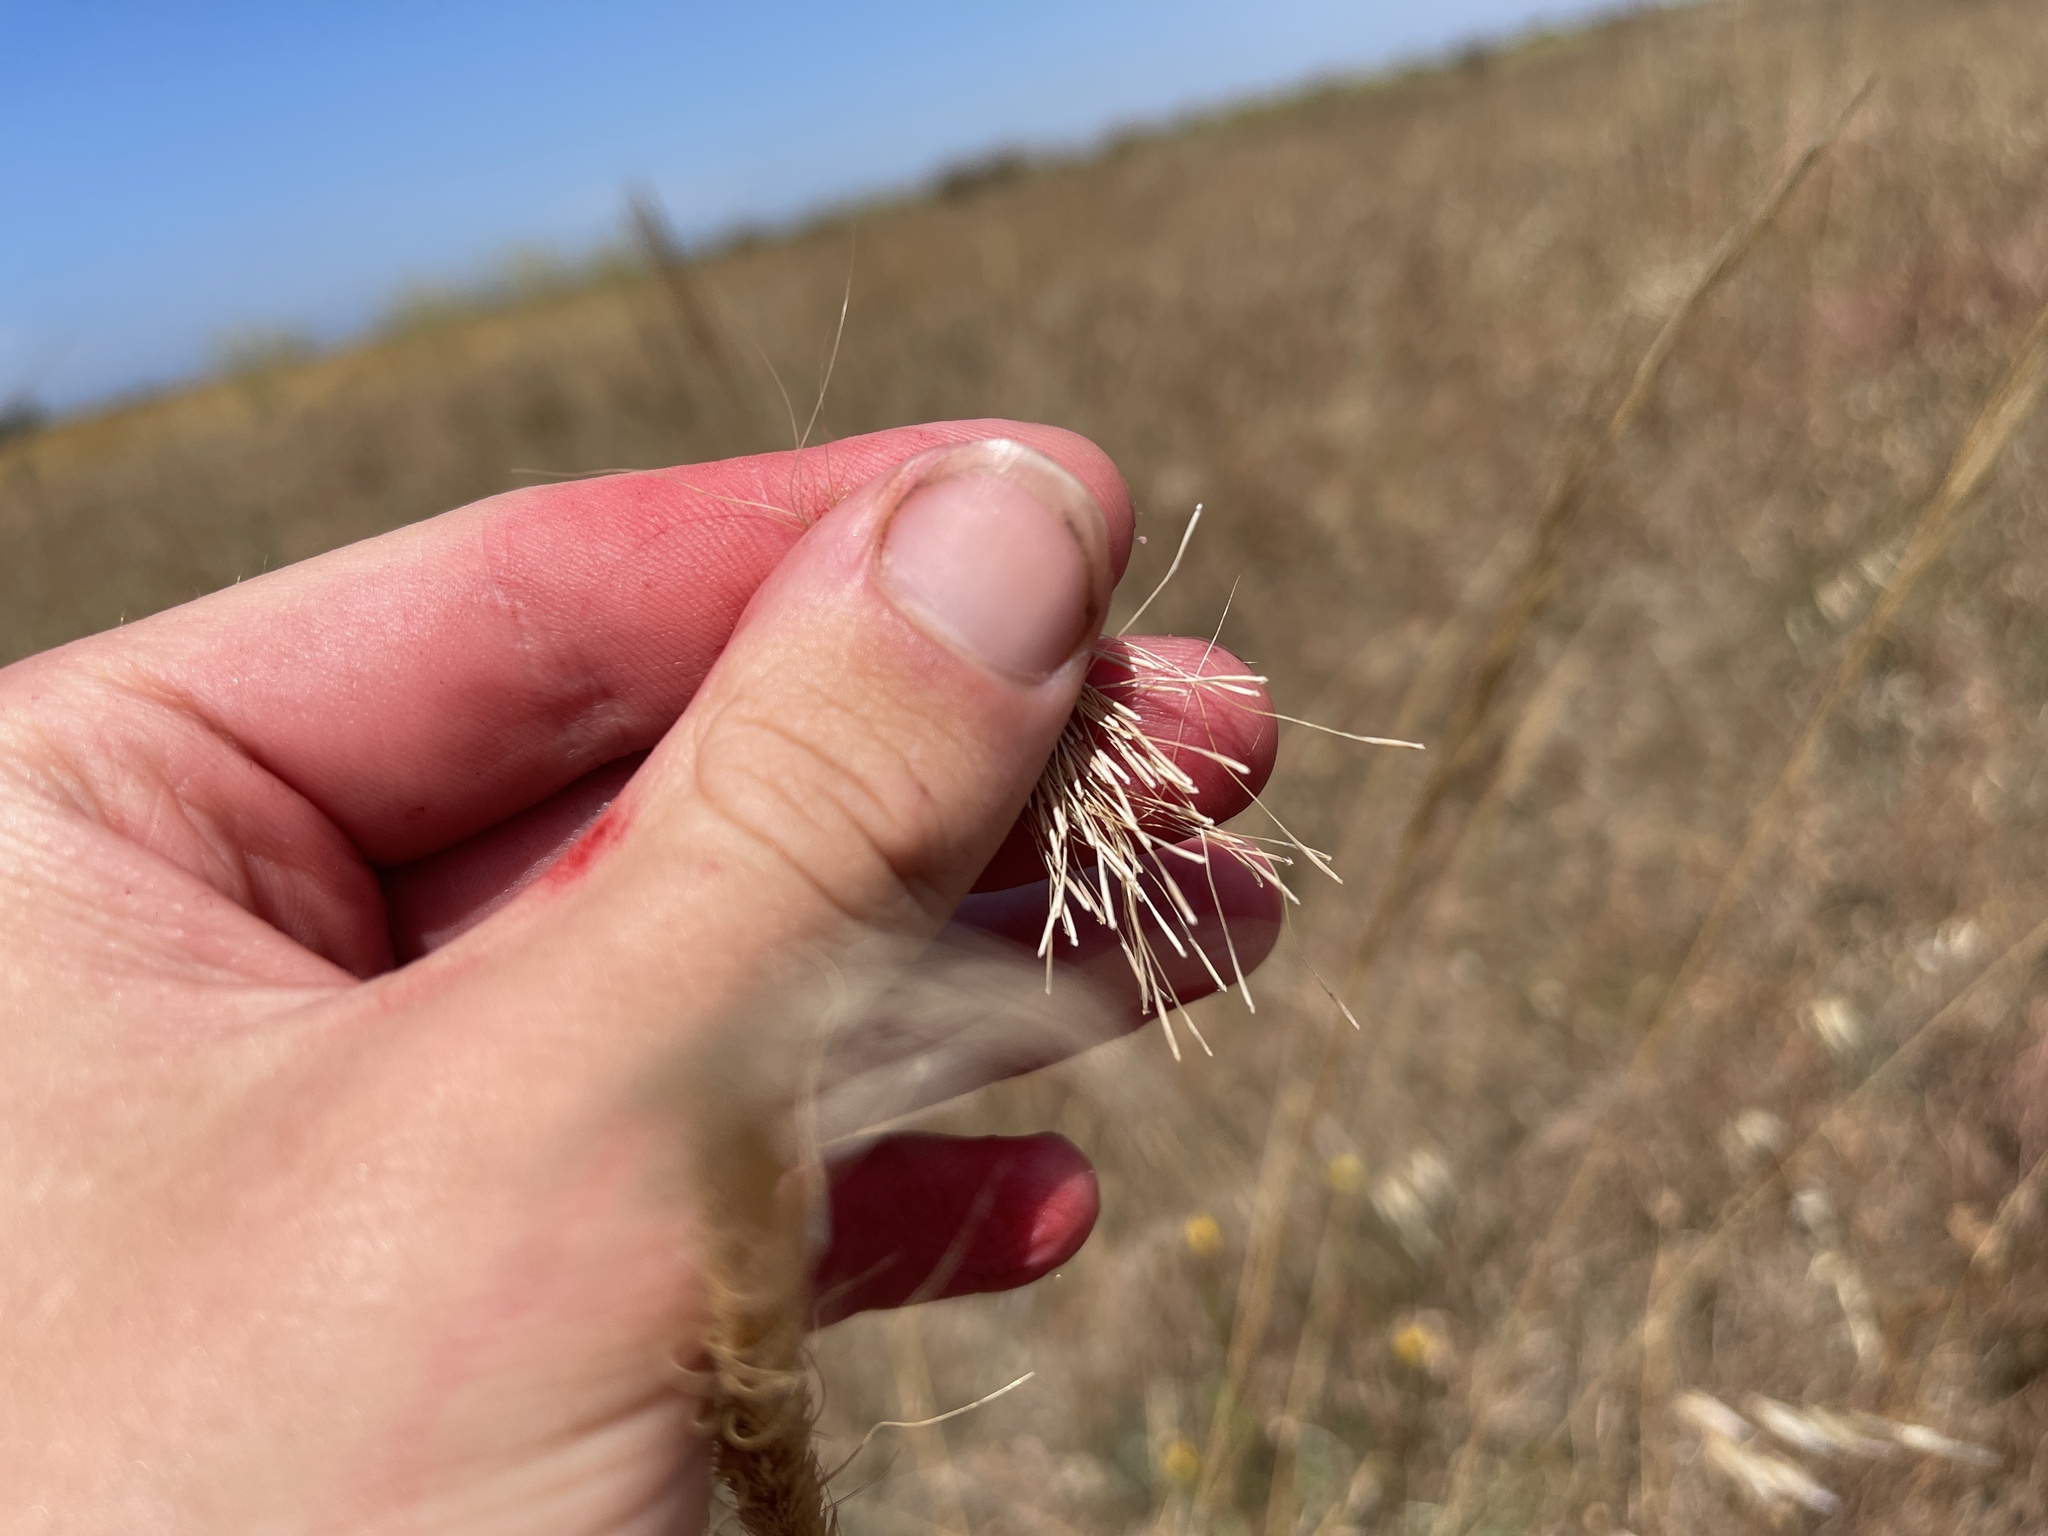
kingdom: Plantae
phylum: Tracheophyta
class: Liliopsida
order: Poales
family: Poaceae
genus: Dichelachne
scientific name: Dichelachne crinita
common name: Clovenfoot plumegrass
